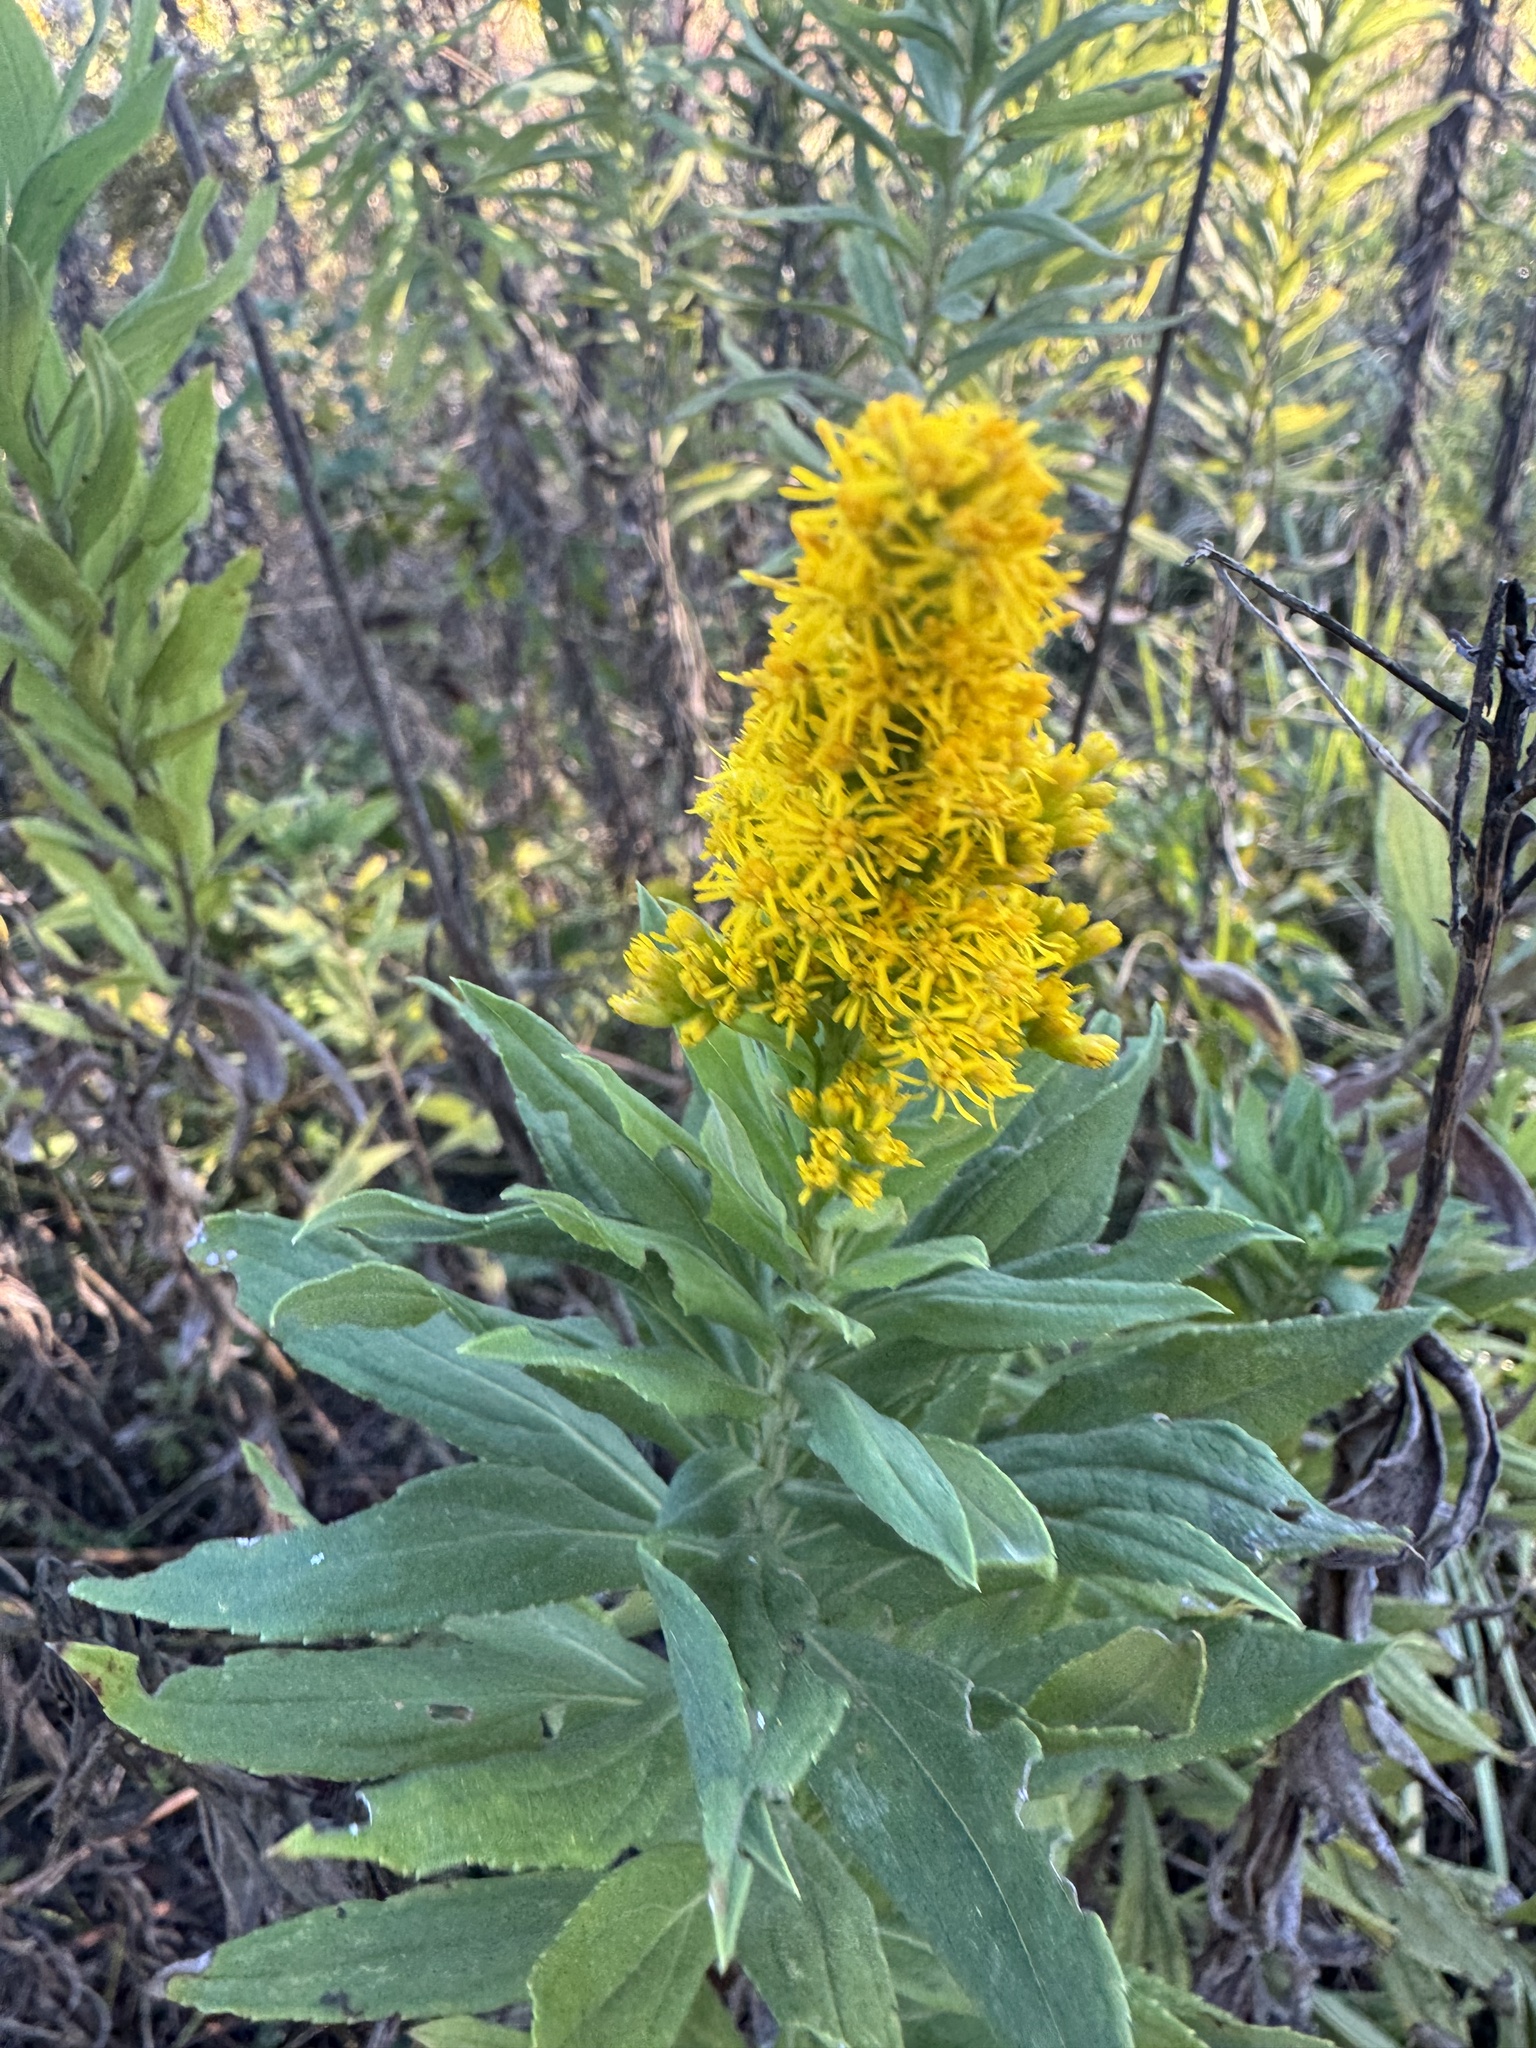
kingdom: Plantae
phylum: Tracheophyta
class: Magnoliopsida
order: Asterales
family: Asteraceae
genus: Solidago
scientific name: Solidago altissima
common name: Late goldenrod
